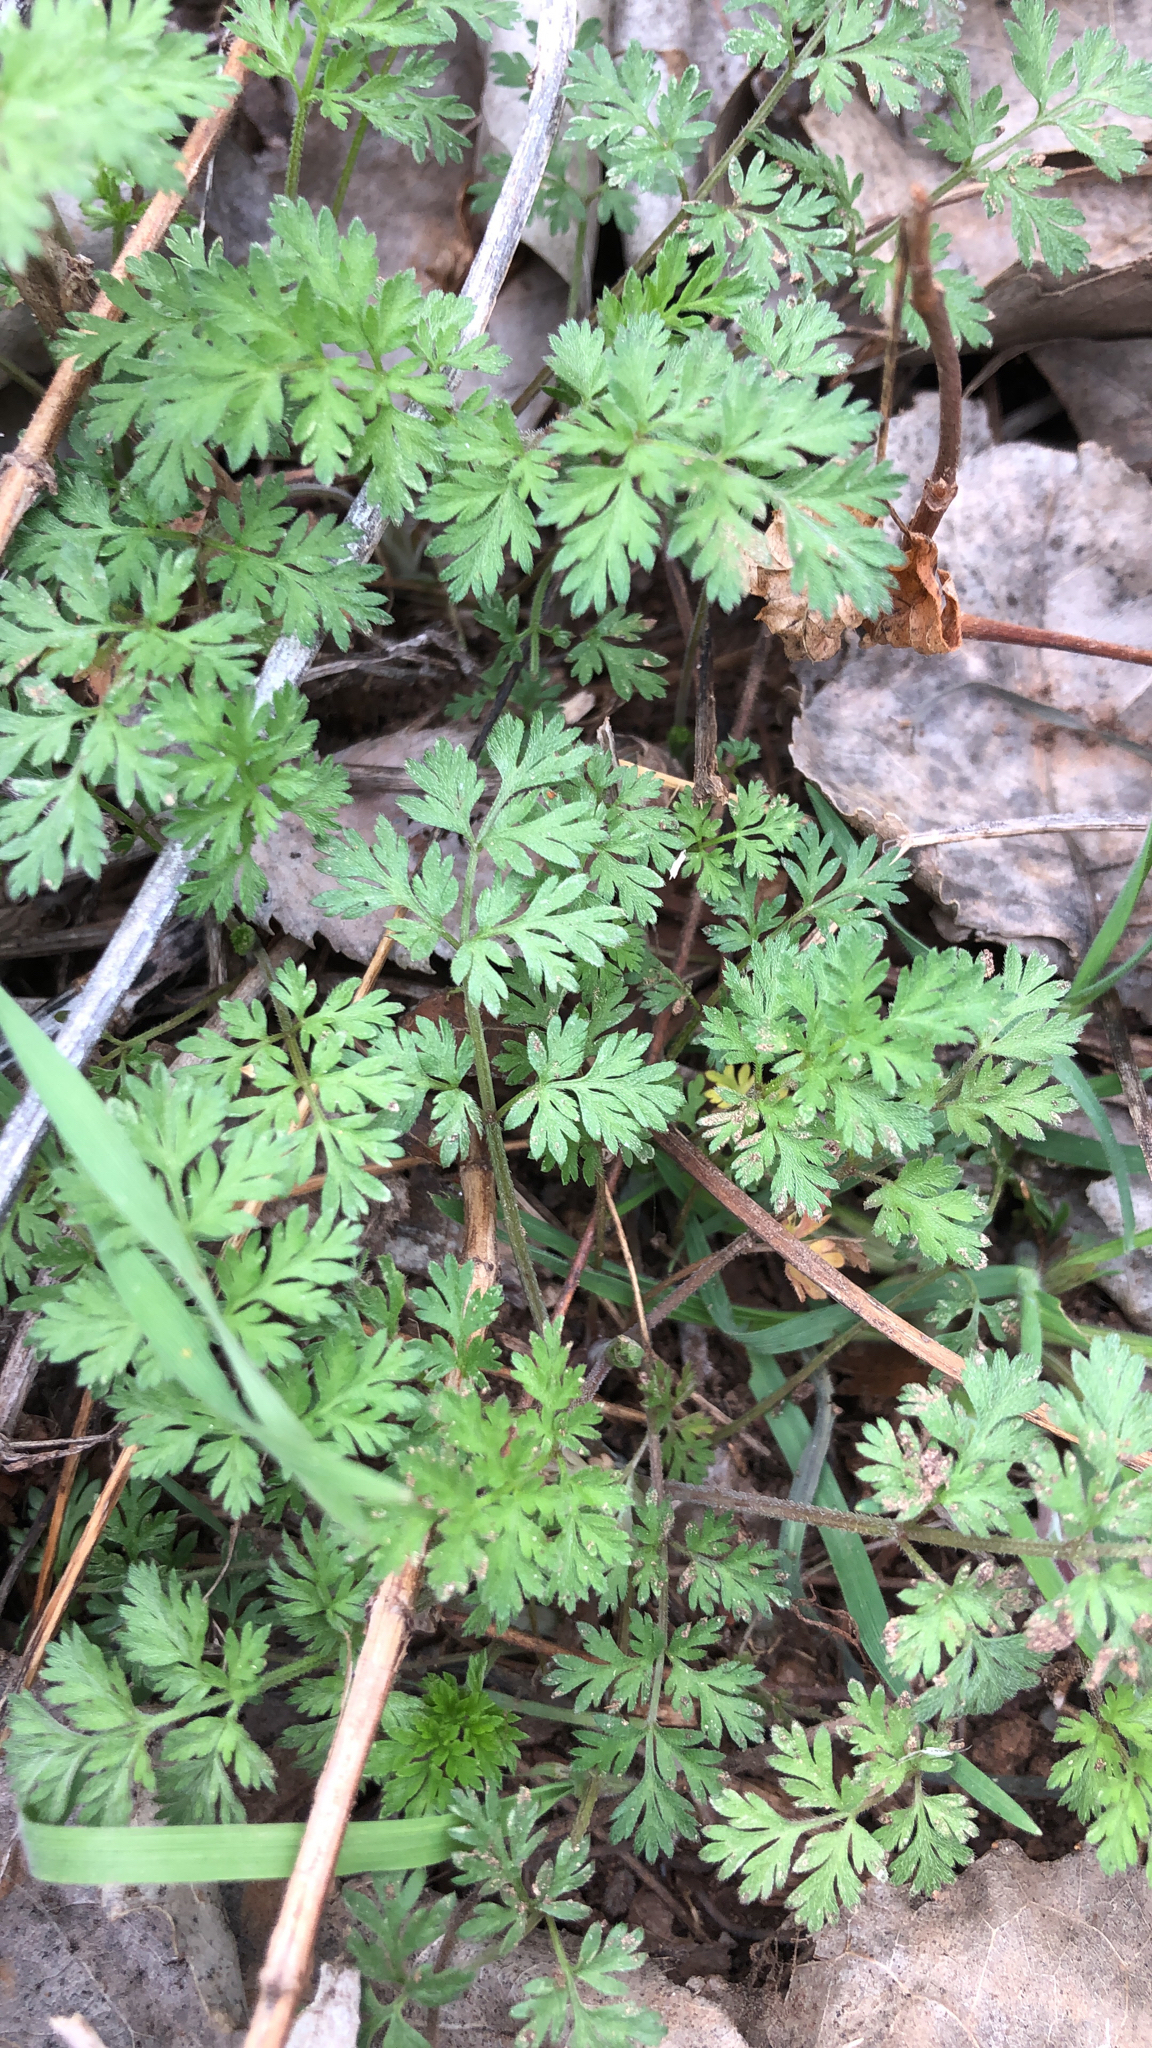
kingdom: Plantae
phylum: Tracheophyta
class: Magnoliopsida
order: Apiales
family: Apiaceae
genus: Chaerophyllum
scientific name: Chaerophyllum tainturieri
